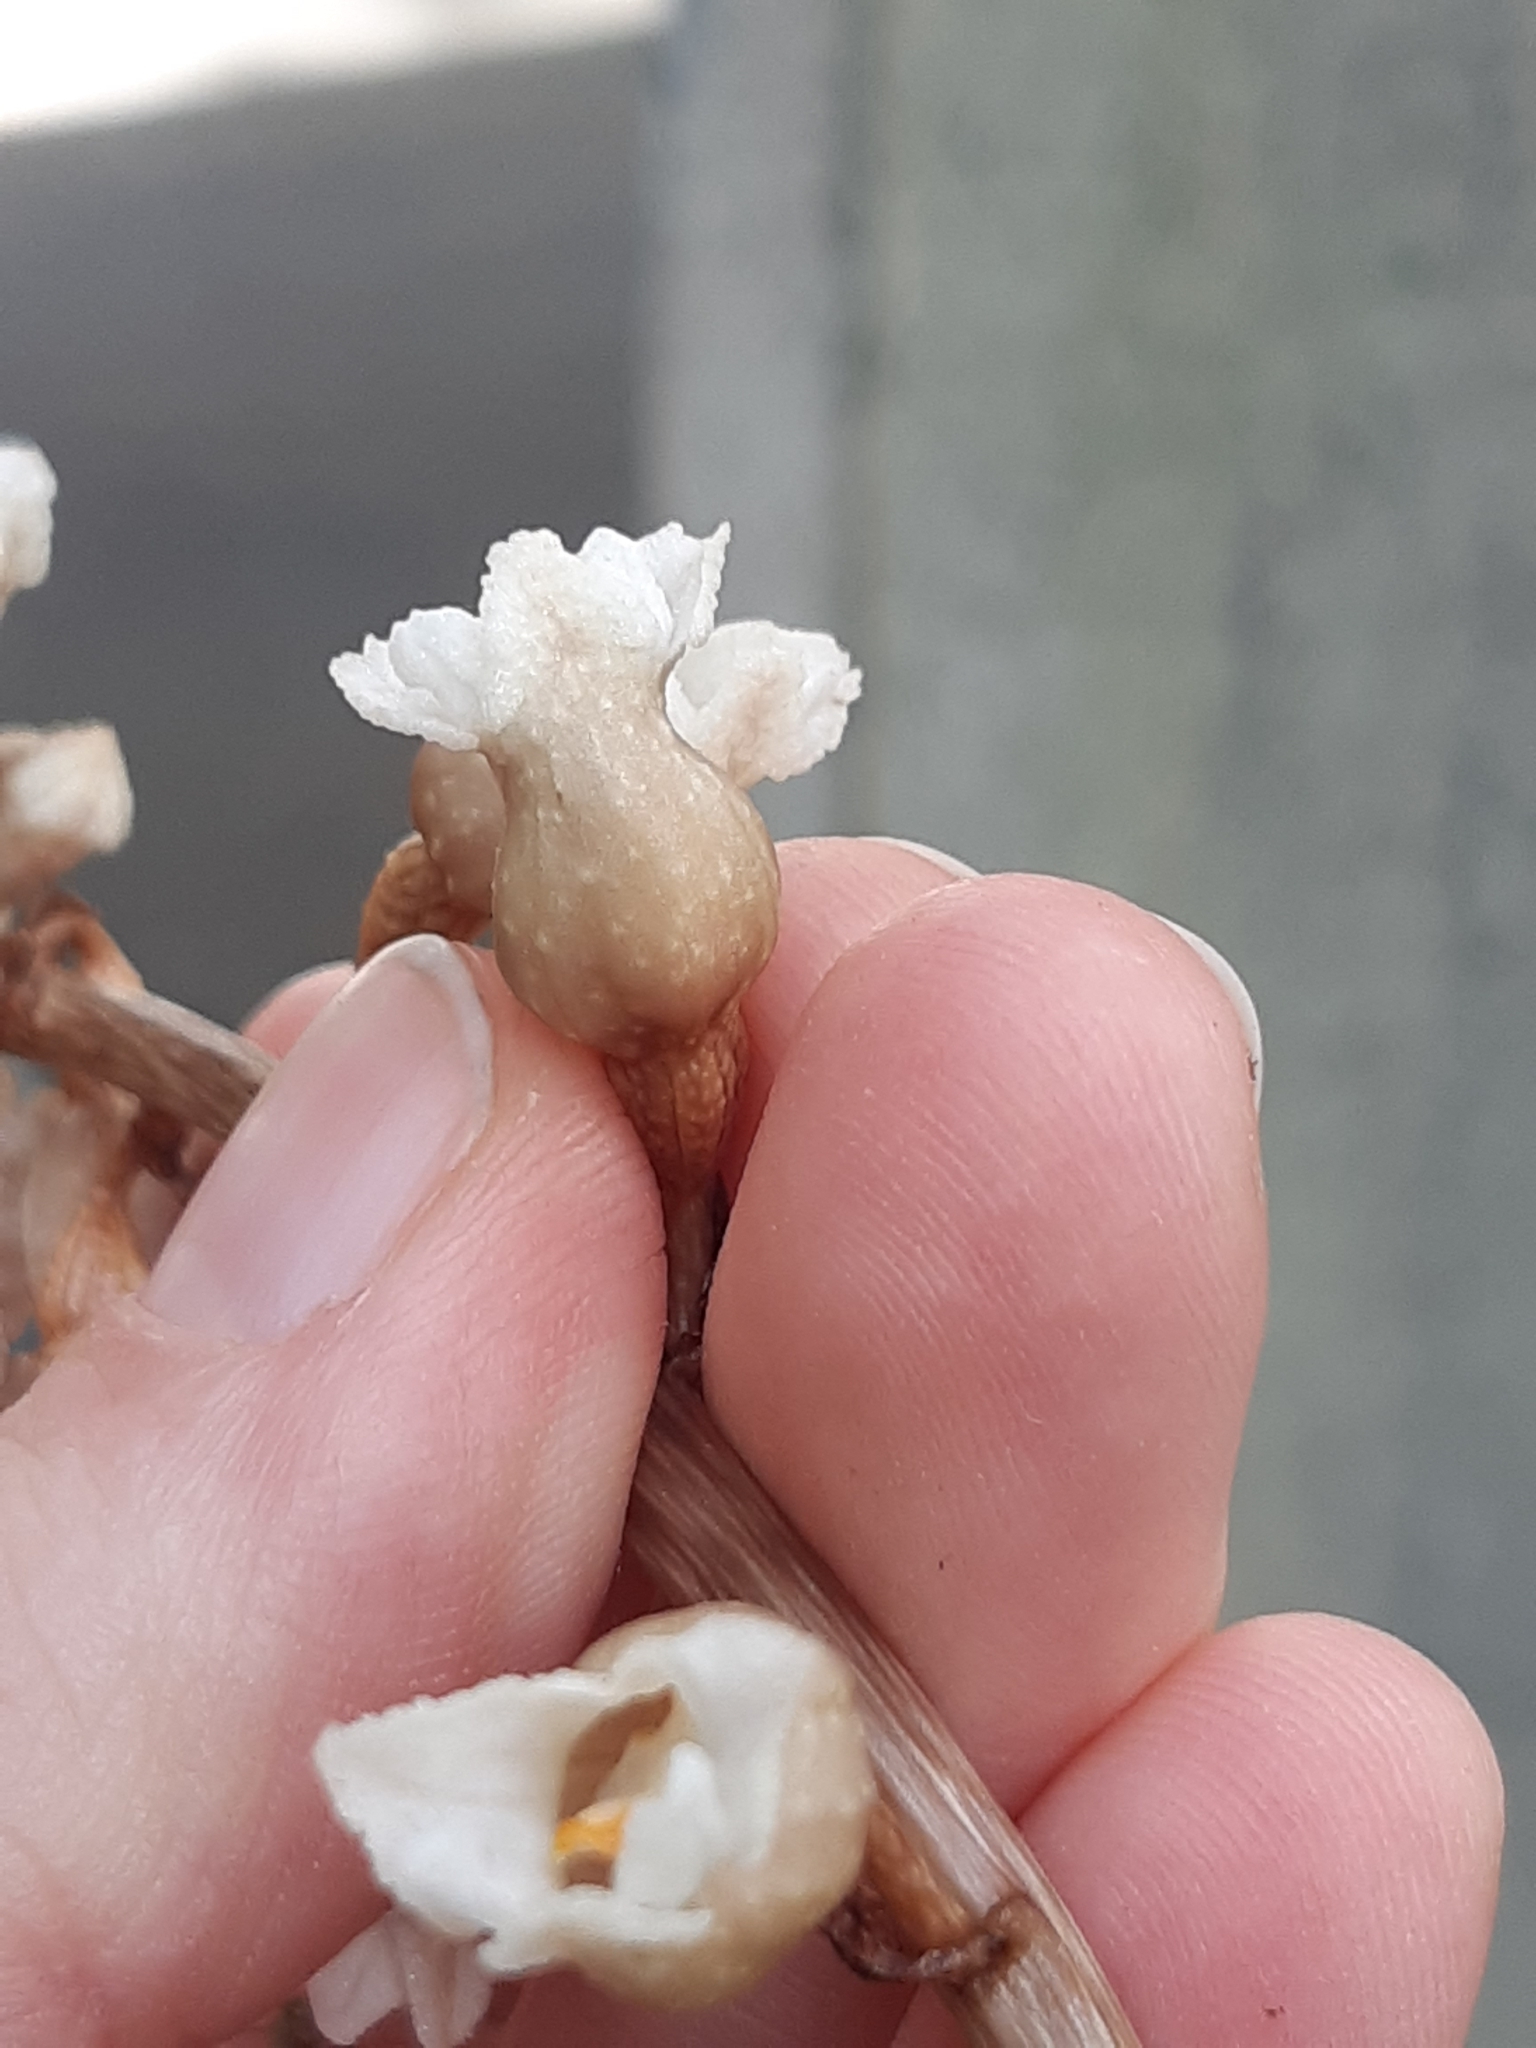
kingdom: Plantae
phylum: Tracheophyta
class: Liliopsida
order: Asparagales
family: Orchidaceae
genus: Gastrodia
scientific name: Gastrodia sesamoides
